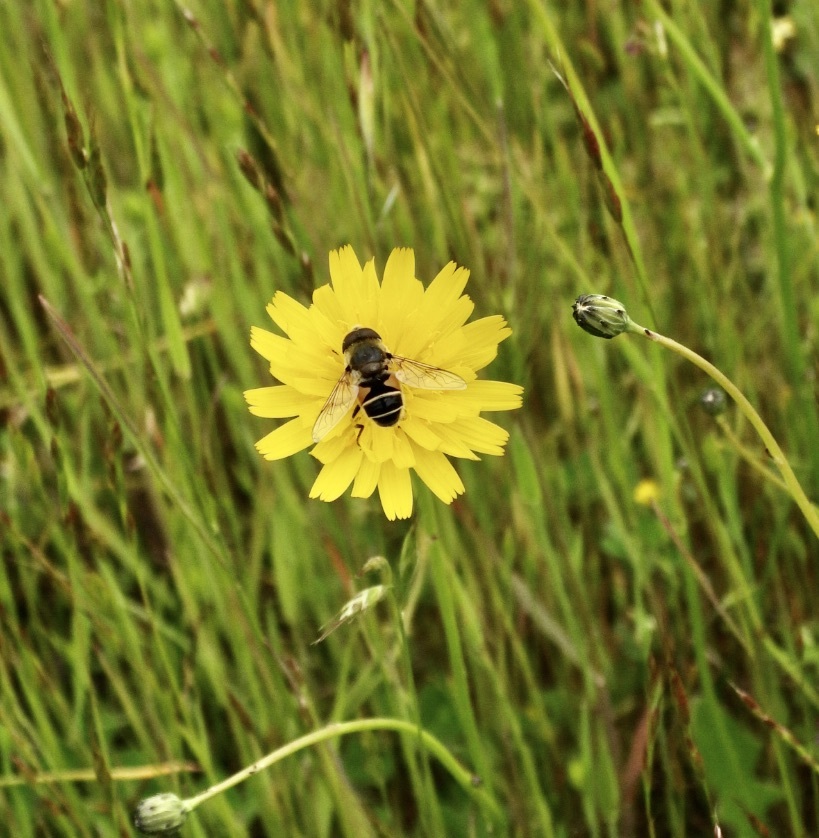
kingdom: Animalia
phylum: Arthropoda
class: Insecta
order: Diptera
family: Syrphidae
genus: Eristalis
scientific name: Eristalis hirta
